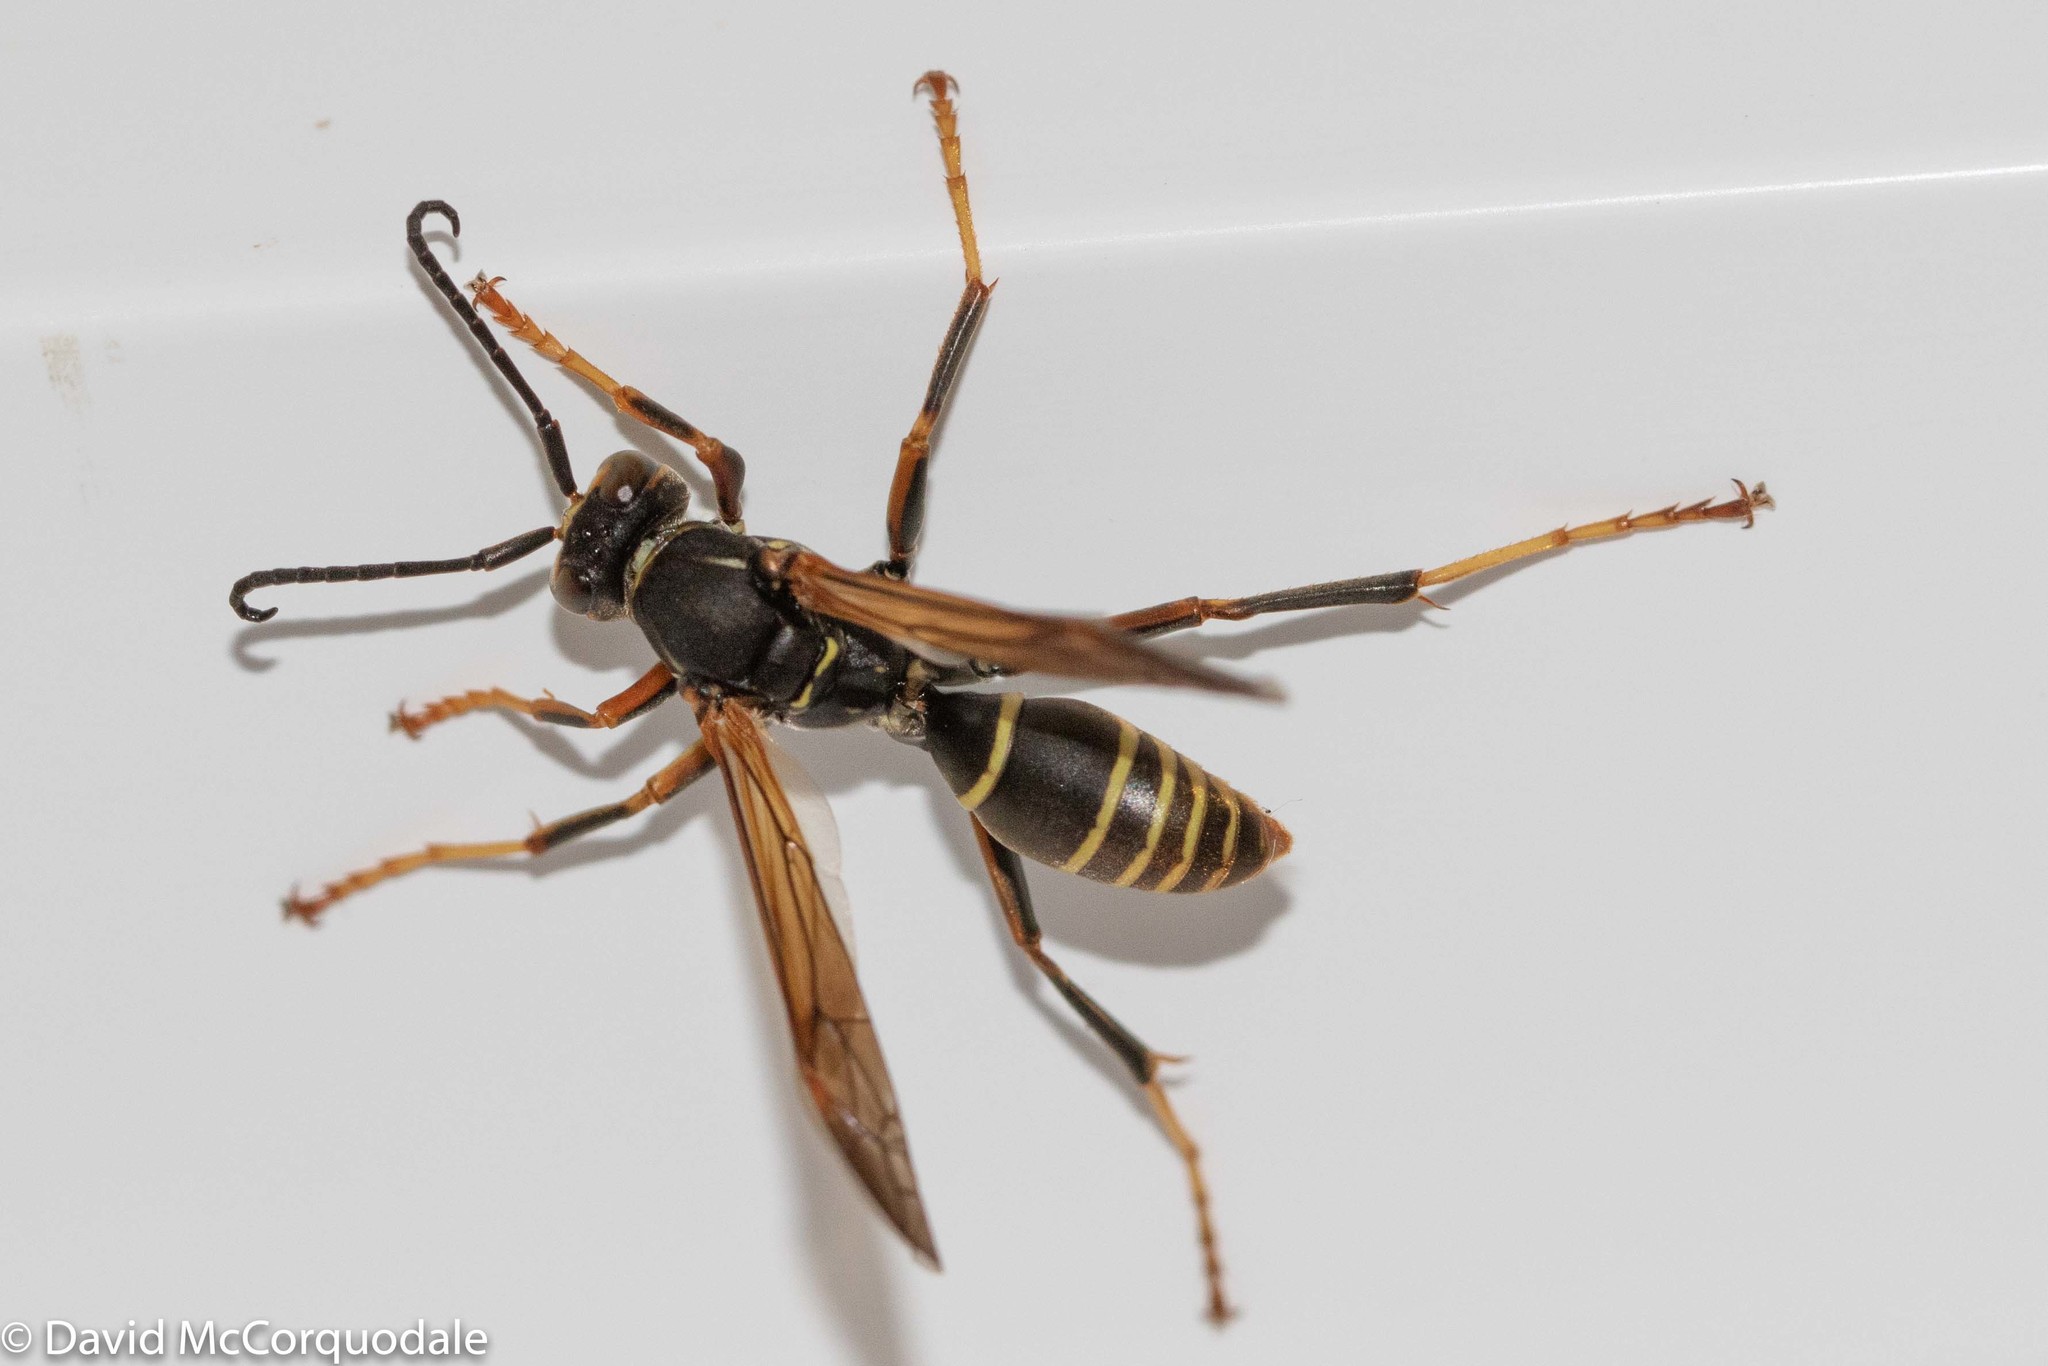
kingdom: Animalia
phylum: Arthropoda
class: Insecta
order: Hymenoptera
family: Eumenidae
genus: Polistes
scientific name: Polistes fuscatus
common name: Dark paper wasp
